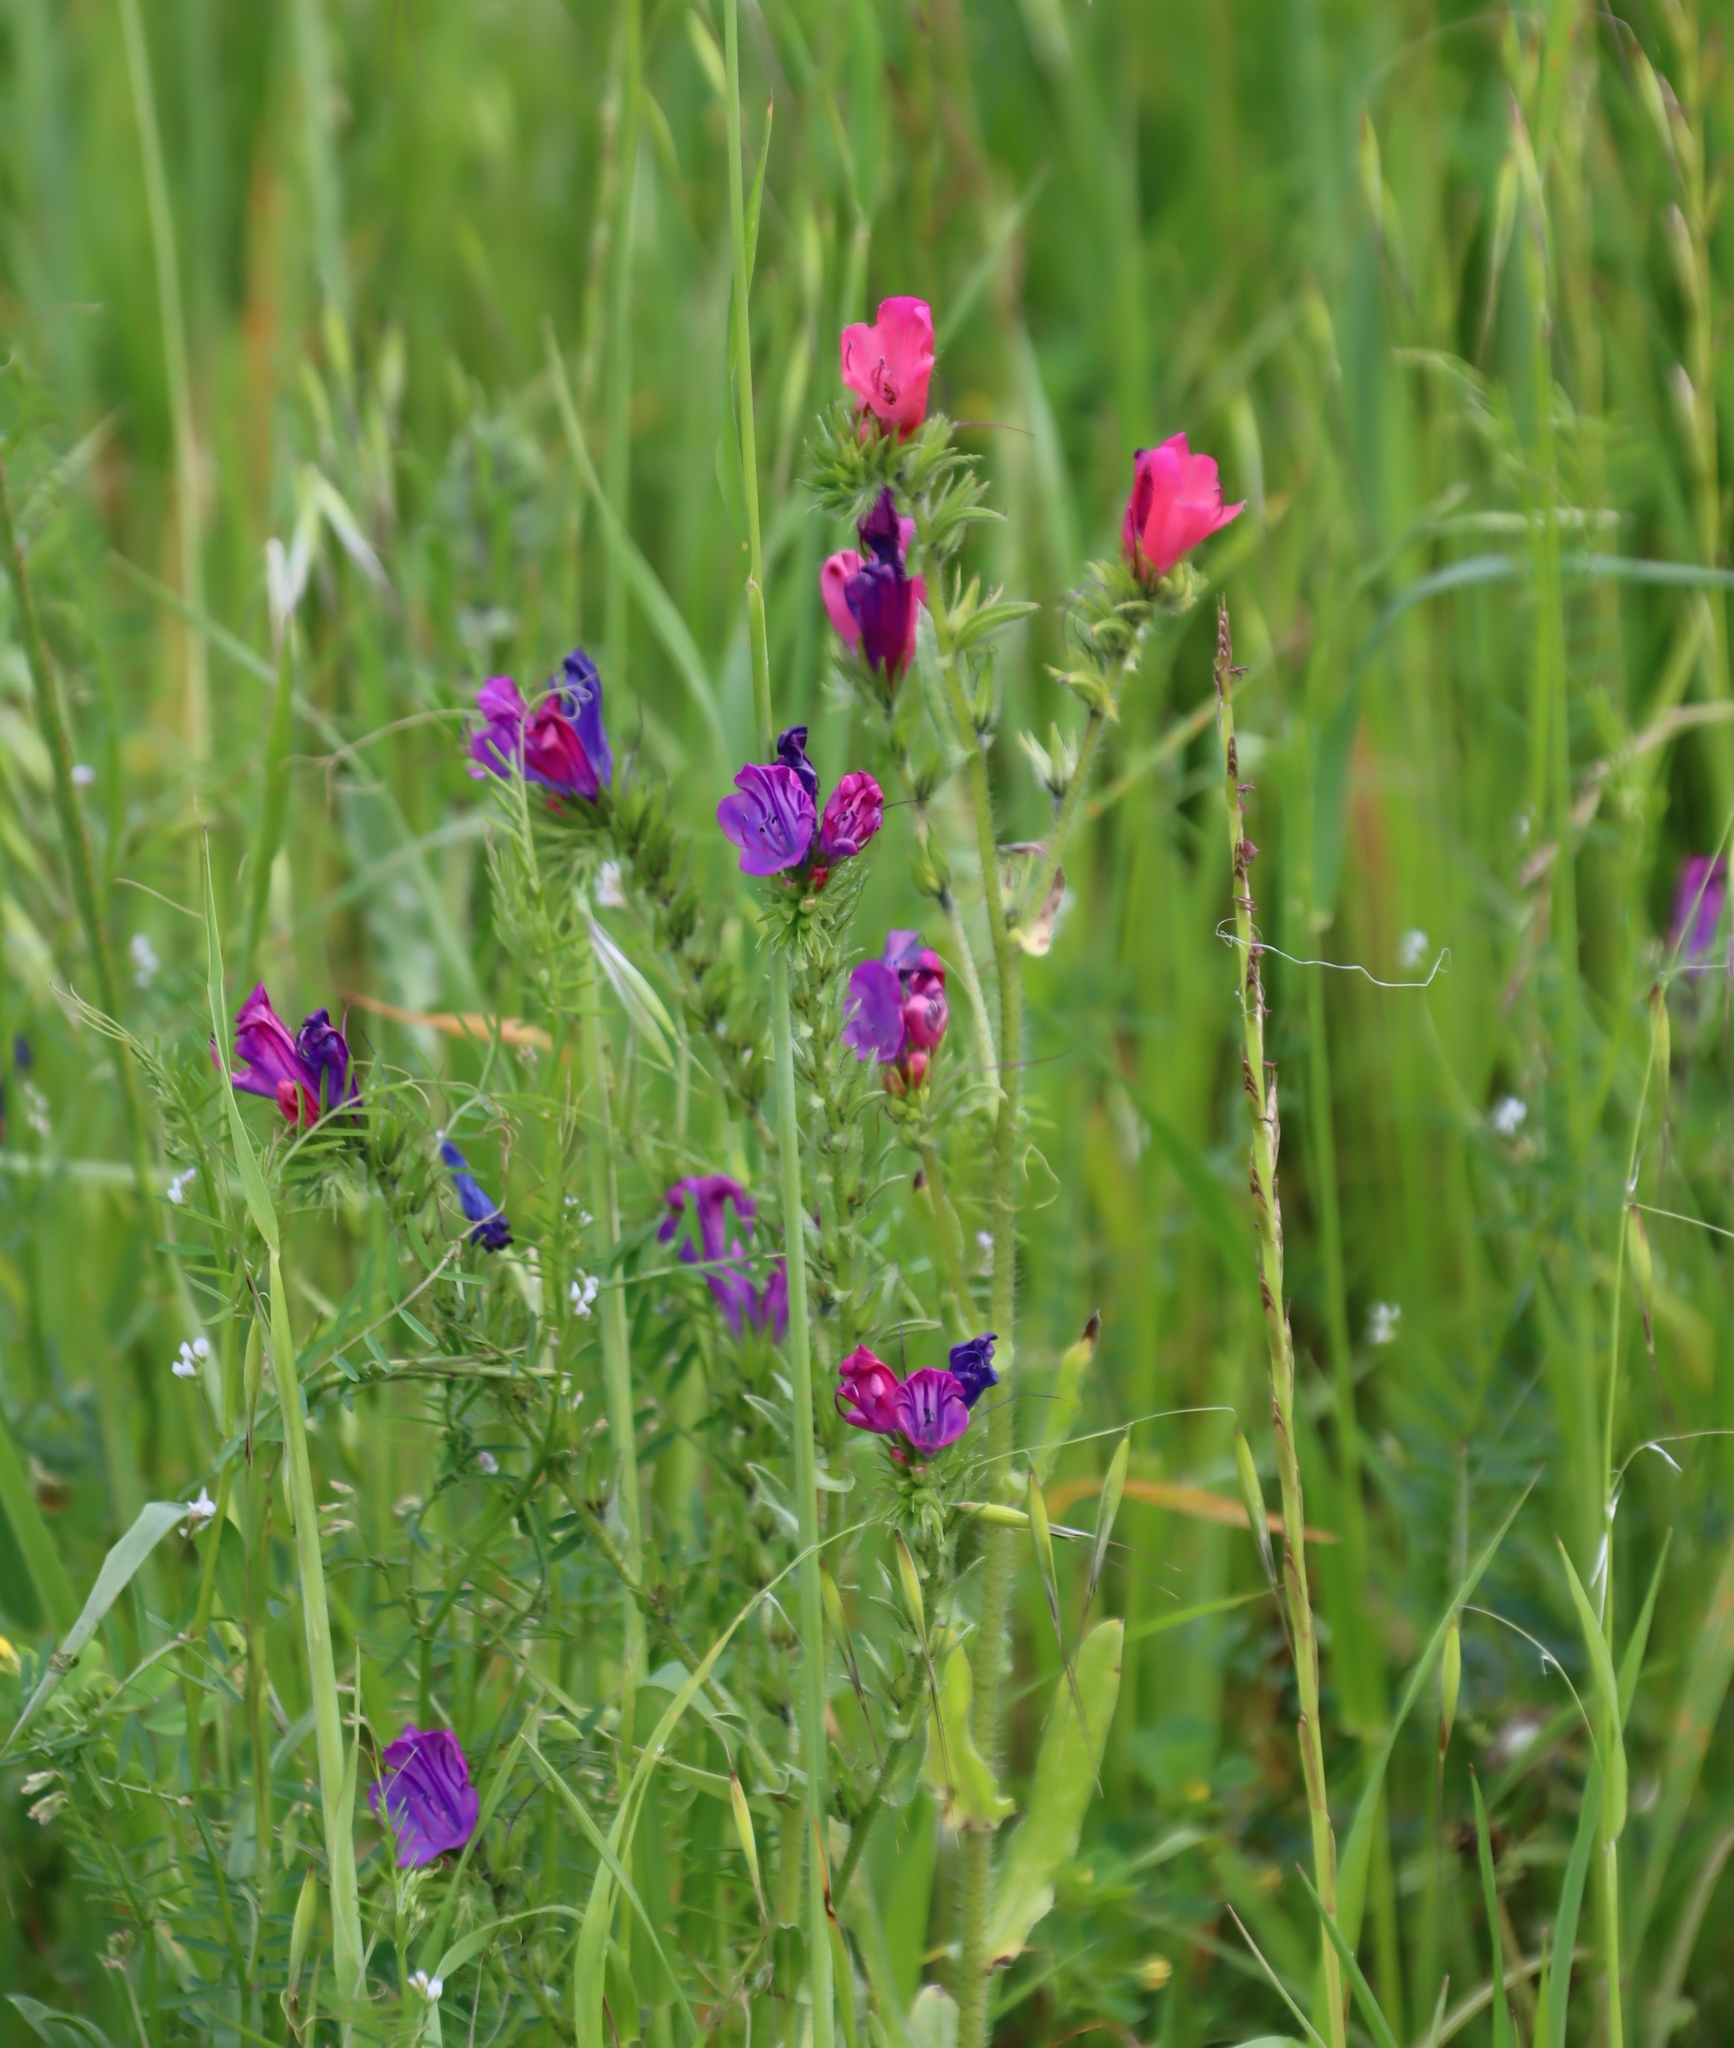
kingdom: Plantae
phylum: Tracheophyta
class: Magnoliopsida
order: Boraginales
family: Boraginaceae
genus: Echium
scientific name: Echium plantagineum
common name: Purple viper's-bugloss
